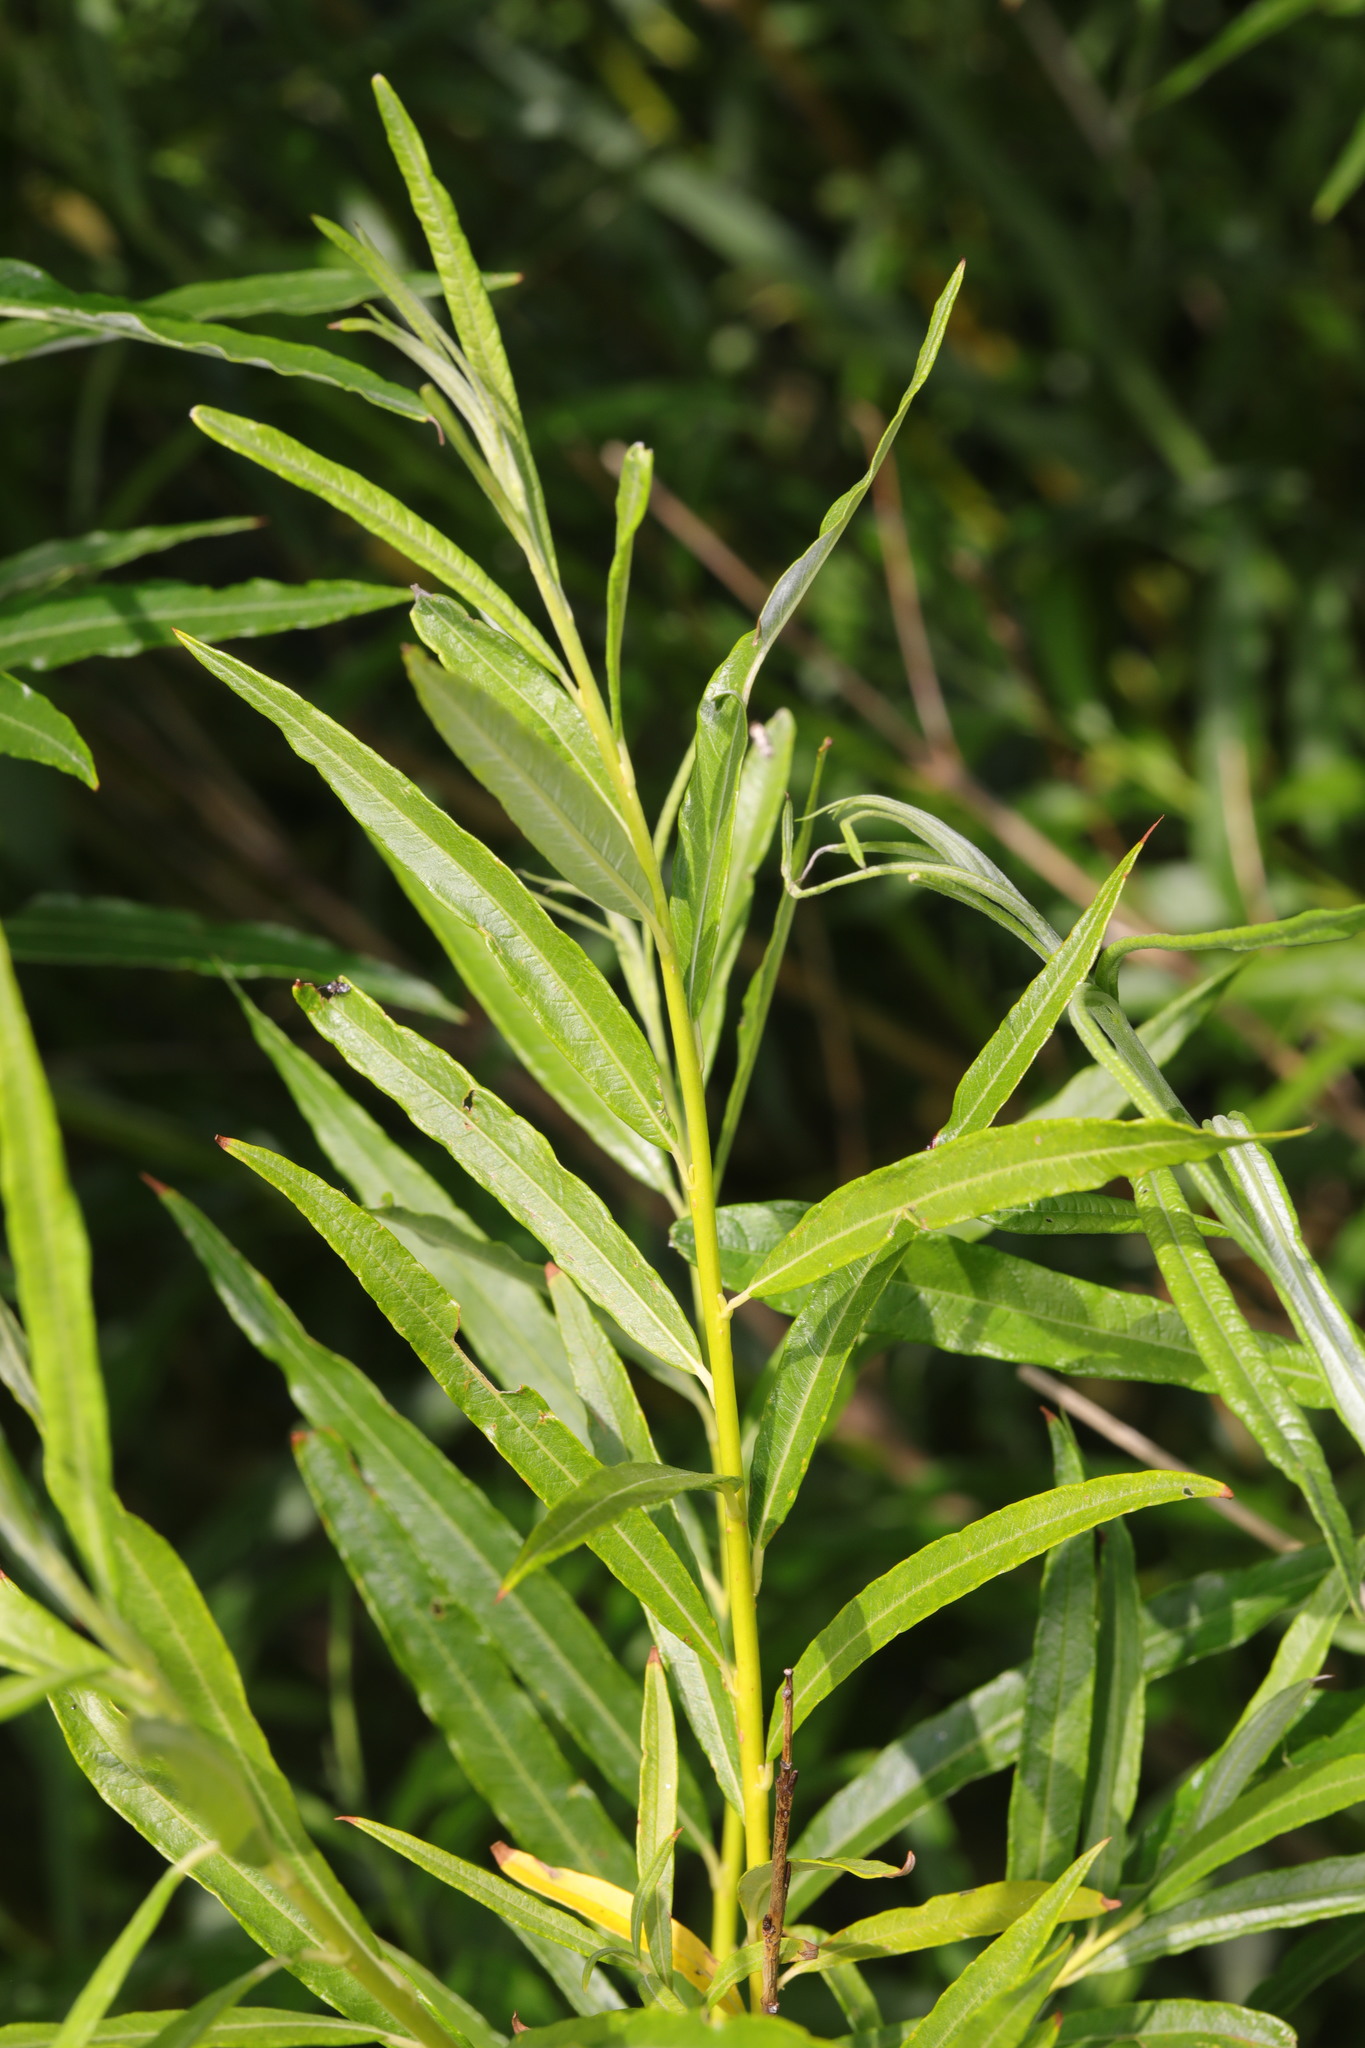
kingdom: Plantae
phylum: Tracheophyta
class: Magnoliopsida
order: Malpighiales
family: Salicaceae
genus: Salix
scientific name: Salix viminalis
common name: Osier
